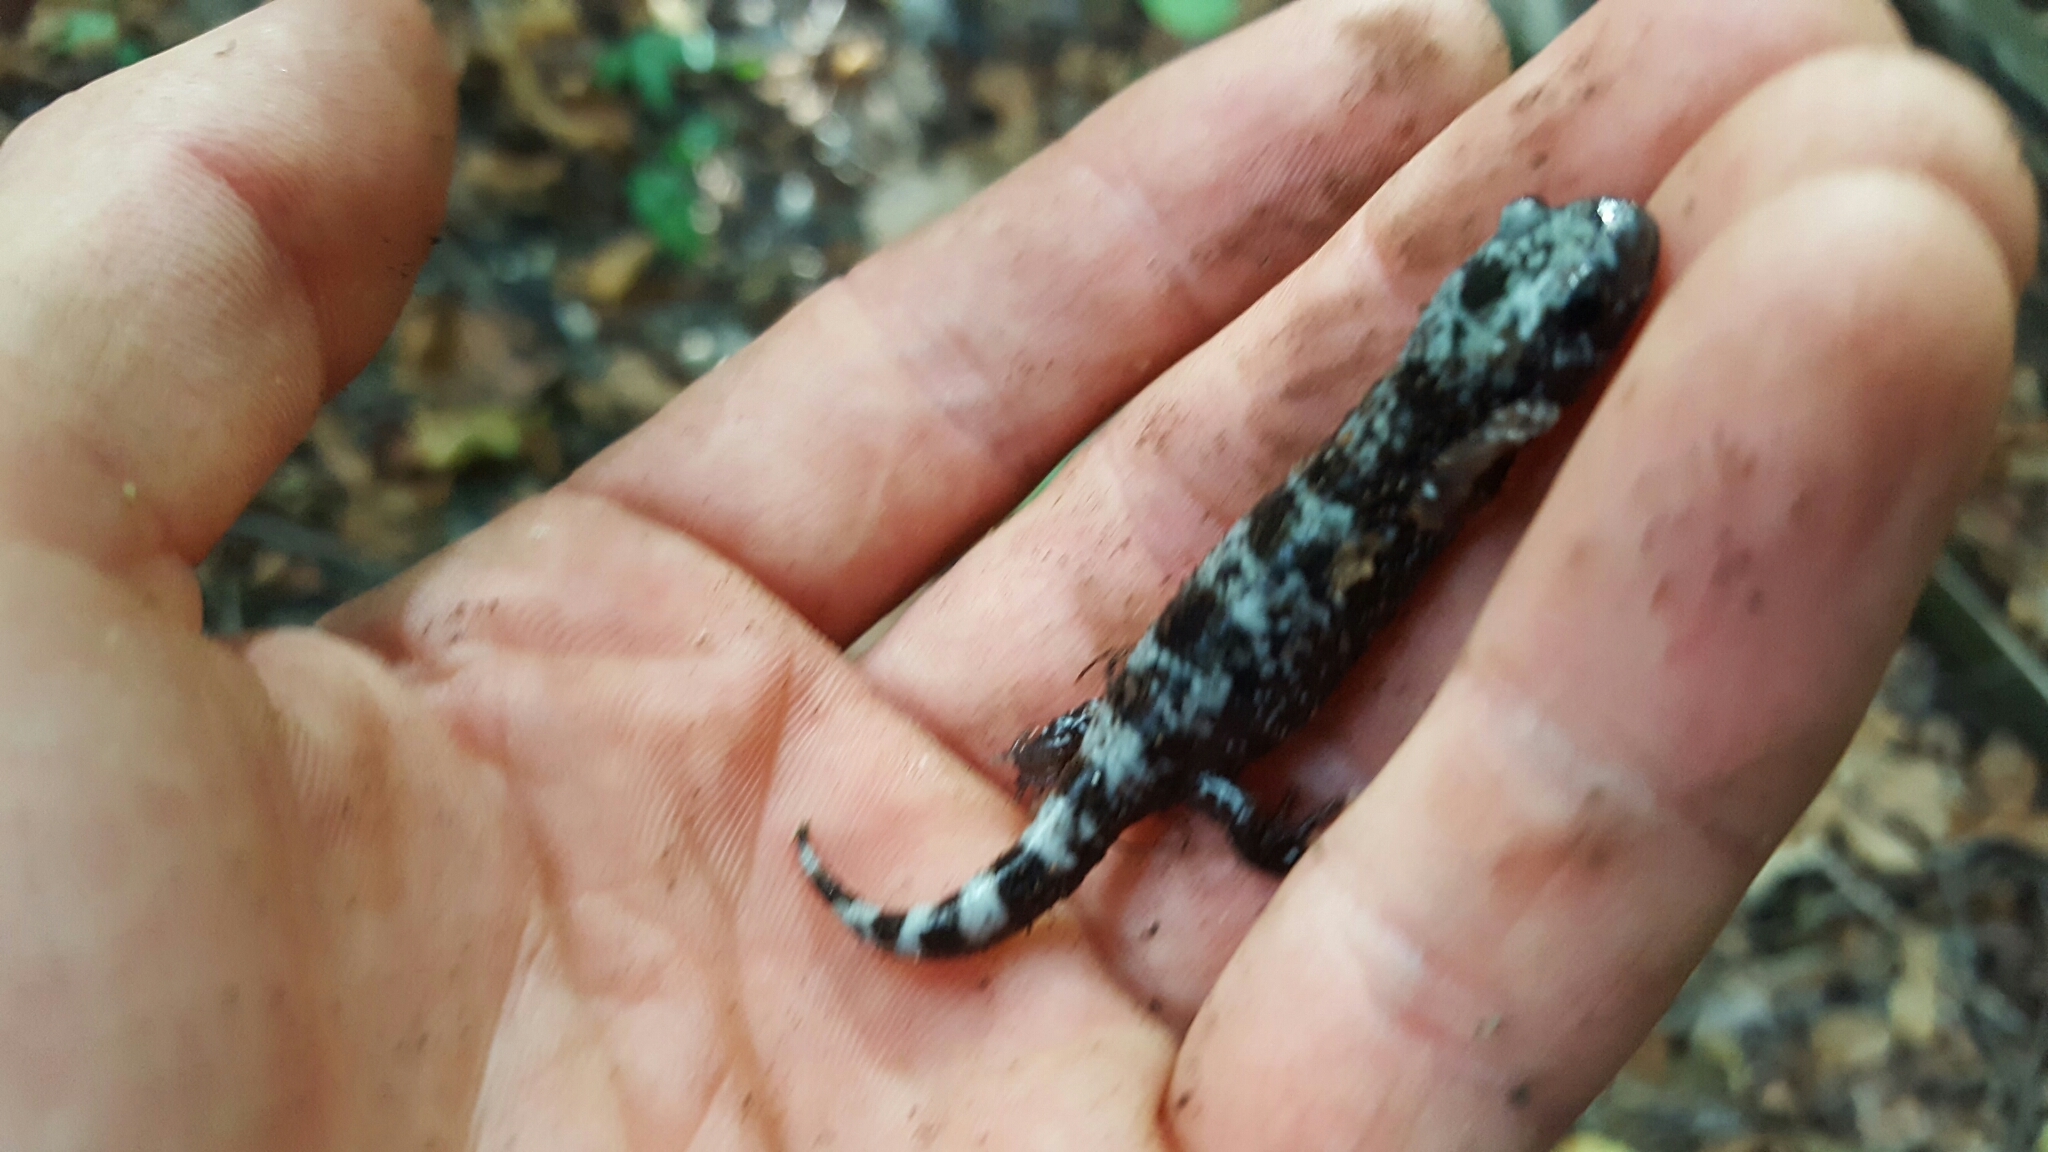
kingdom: Animalia
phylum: Chordata
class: Amphibia
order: Caudata
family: Ambystomatidae
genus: Ambystoma
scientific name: Ambystoma opacum
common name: Marbled salamander
